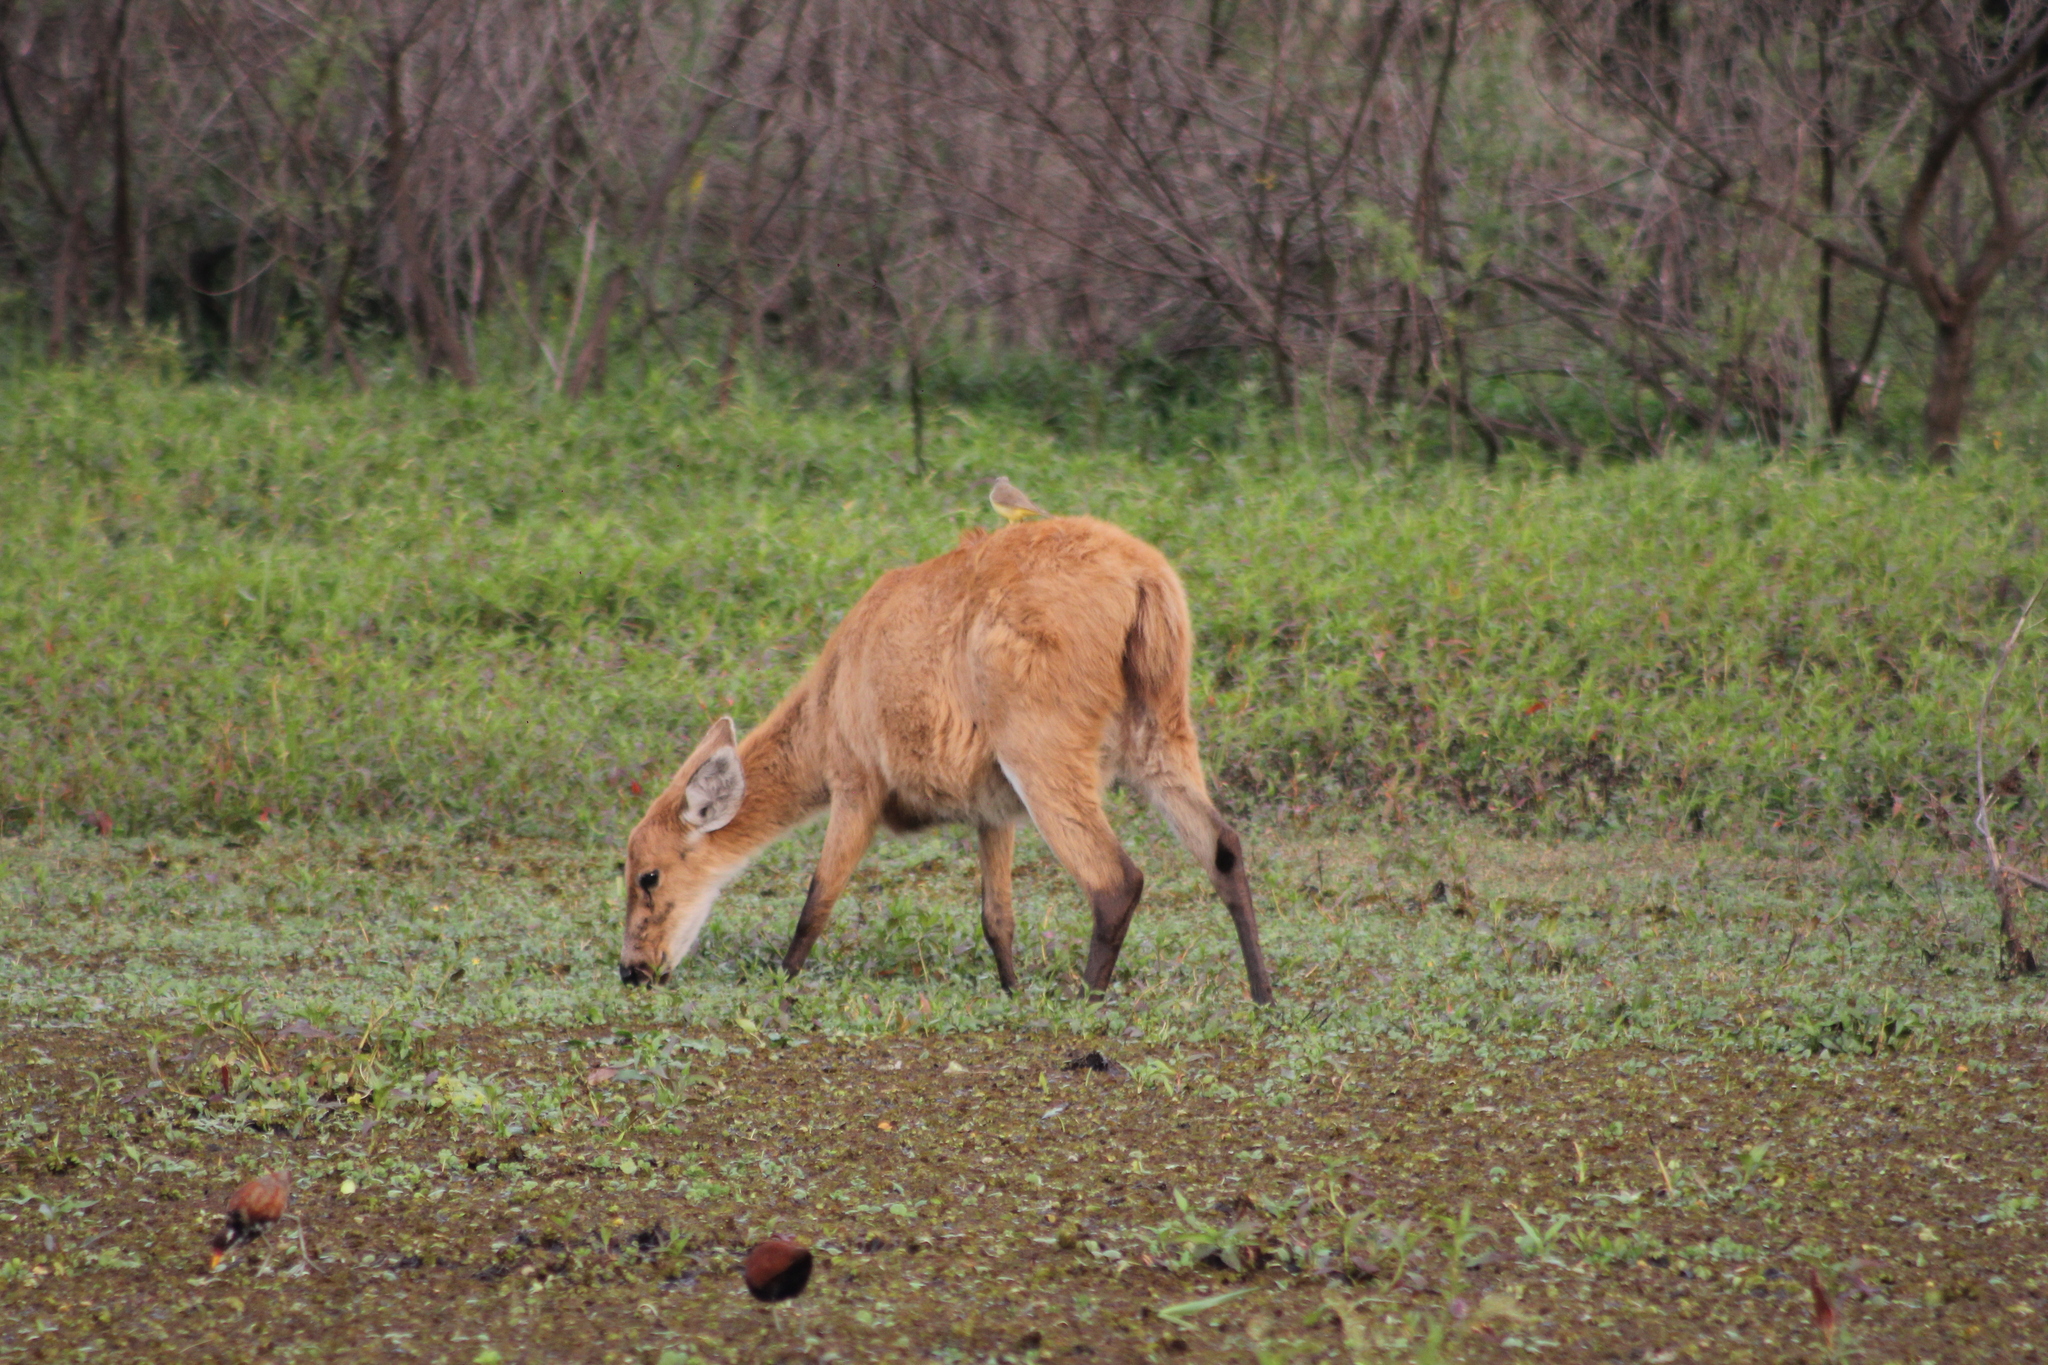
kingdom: Animalia
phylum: Chordata
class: Mammalia
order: Artiodactyla
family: Cervidae
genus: Blastocerus
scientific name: Blastocerus dichotomus
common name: Marsh deer
